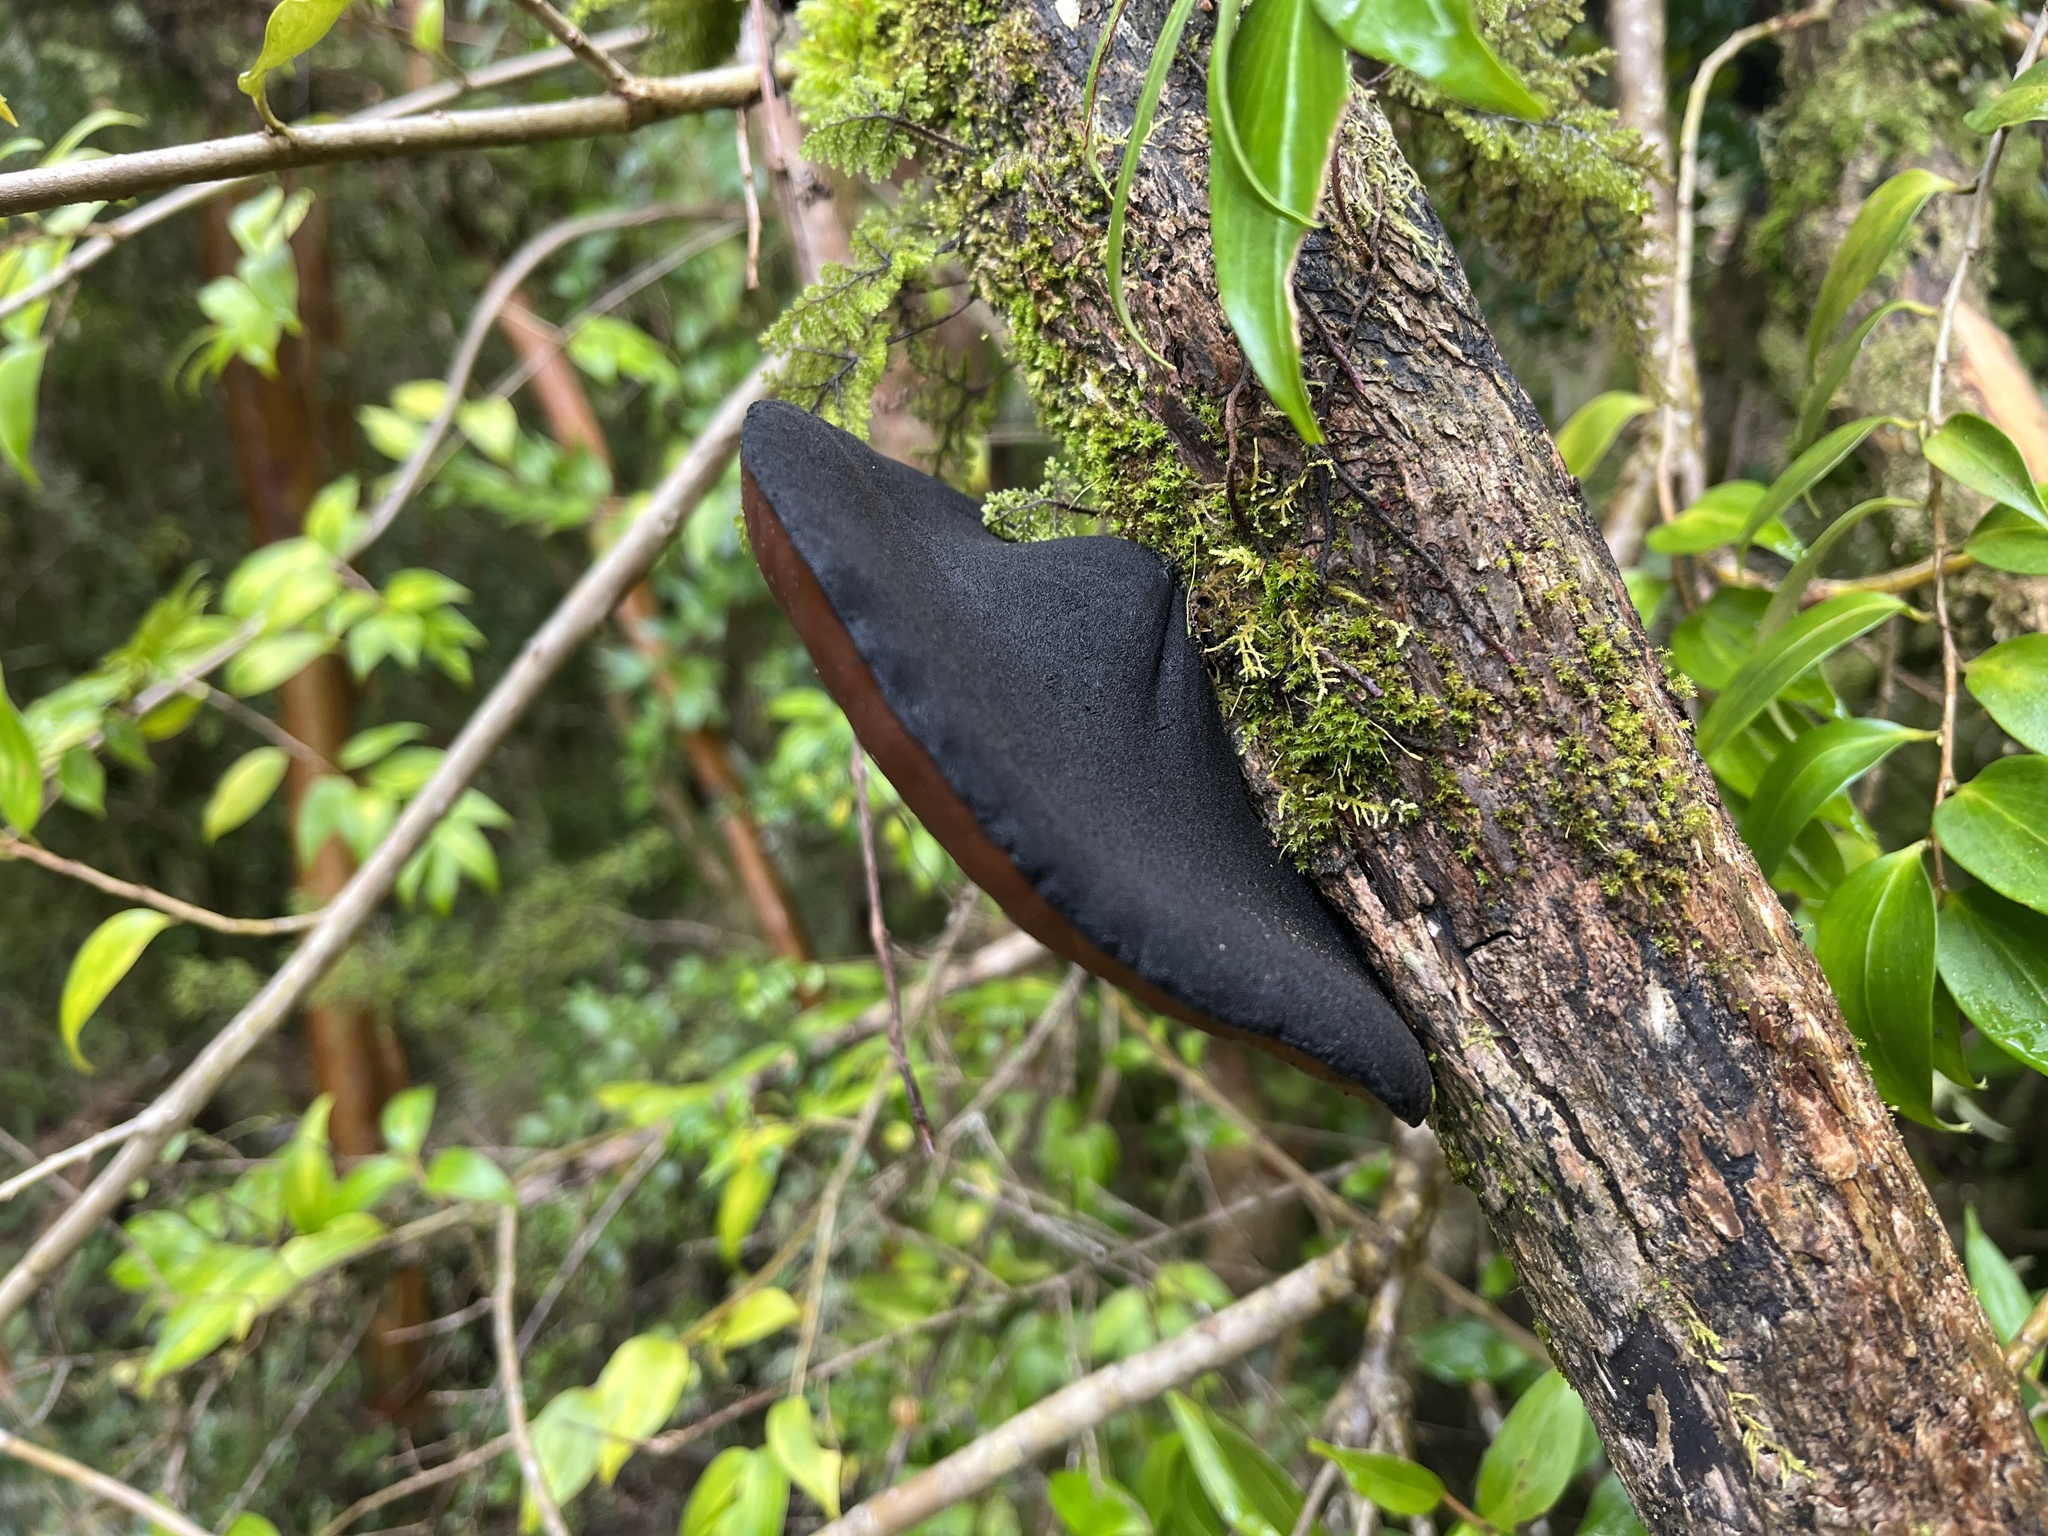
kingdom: Fungi
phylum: Ascomycota
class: Pezizomycetes
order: Pezizales
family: Sarcosomataceae
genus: Plectania
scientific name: Plectania chilensis
